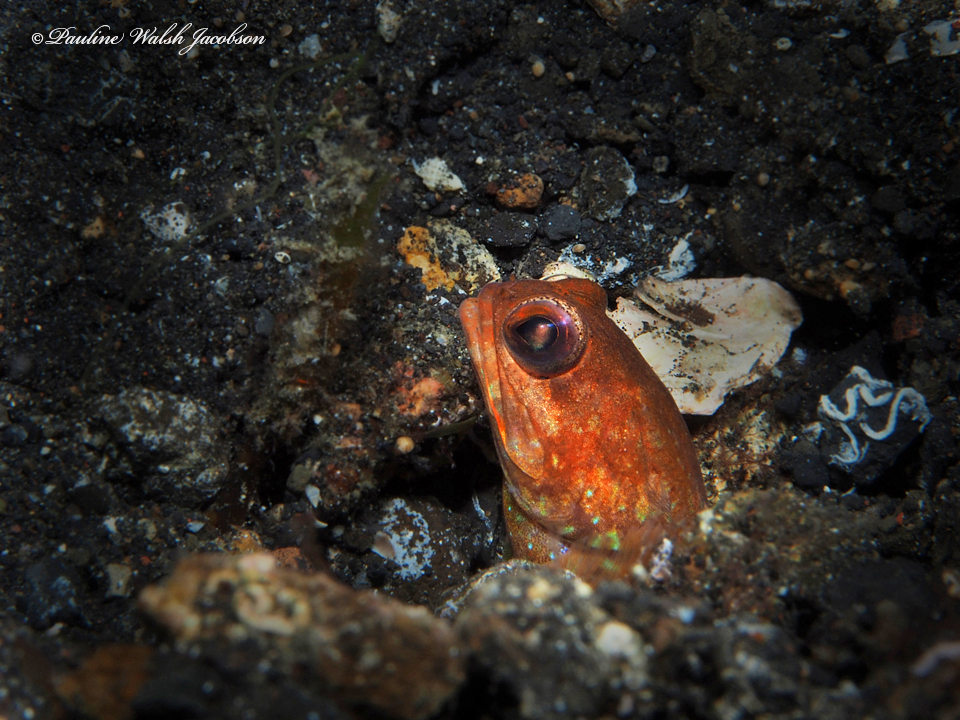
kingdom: Animalia
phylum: Chordata
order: Perciformes
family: Opistognathidae
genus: Opistognathus
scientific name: Opistognathus solorensis
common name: Solor jawfish
